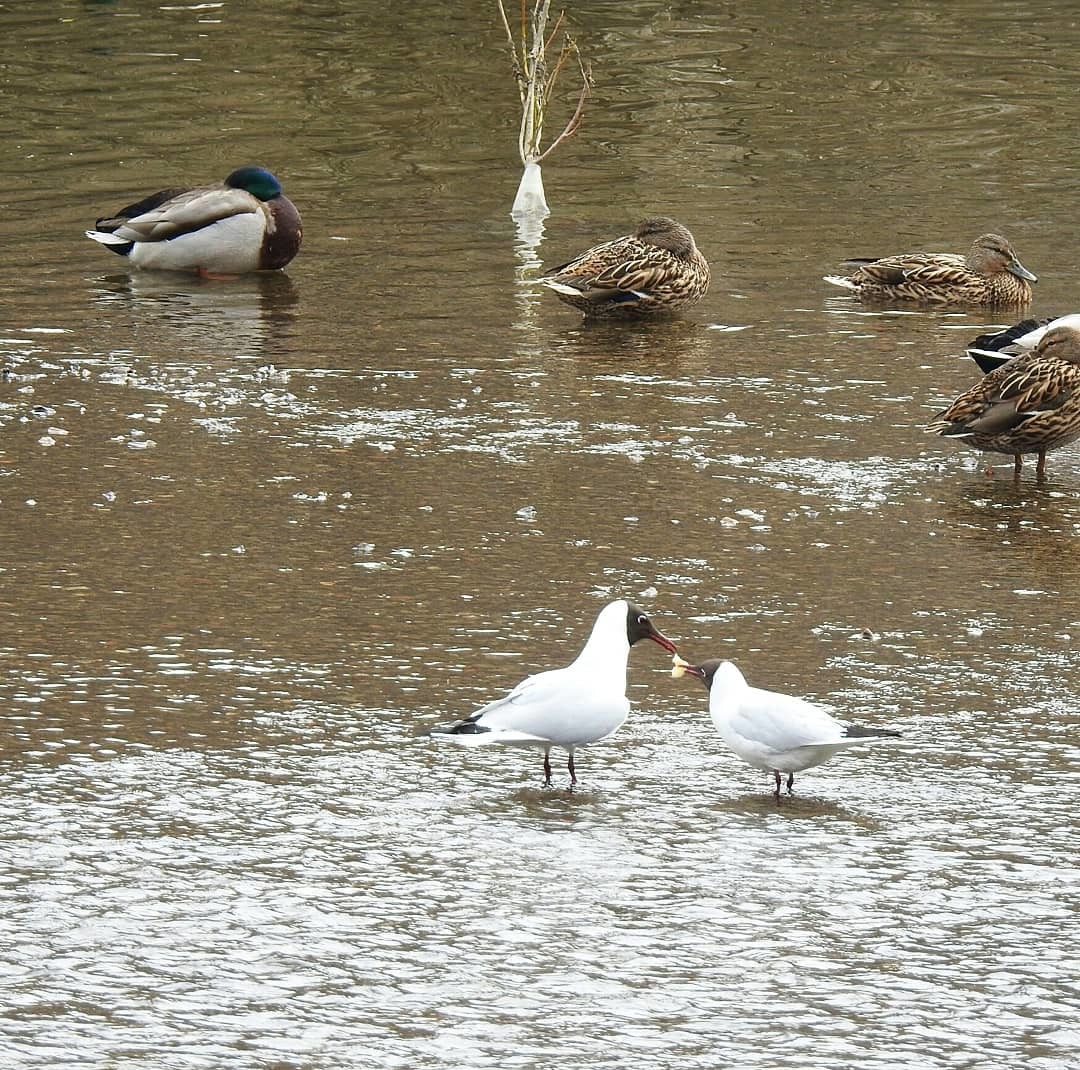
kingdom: Animalia
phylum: Chordata
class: Aves
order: Charadriiformes
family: Laridae
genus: Chroicocephalus
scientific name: Chroicocephalus ridibundus
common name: Black-headed gull
